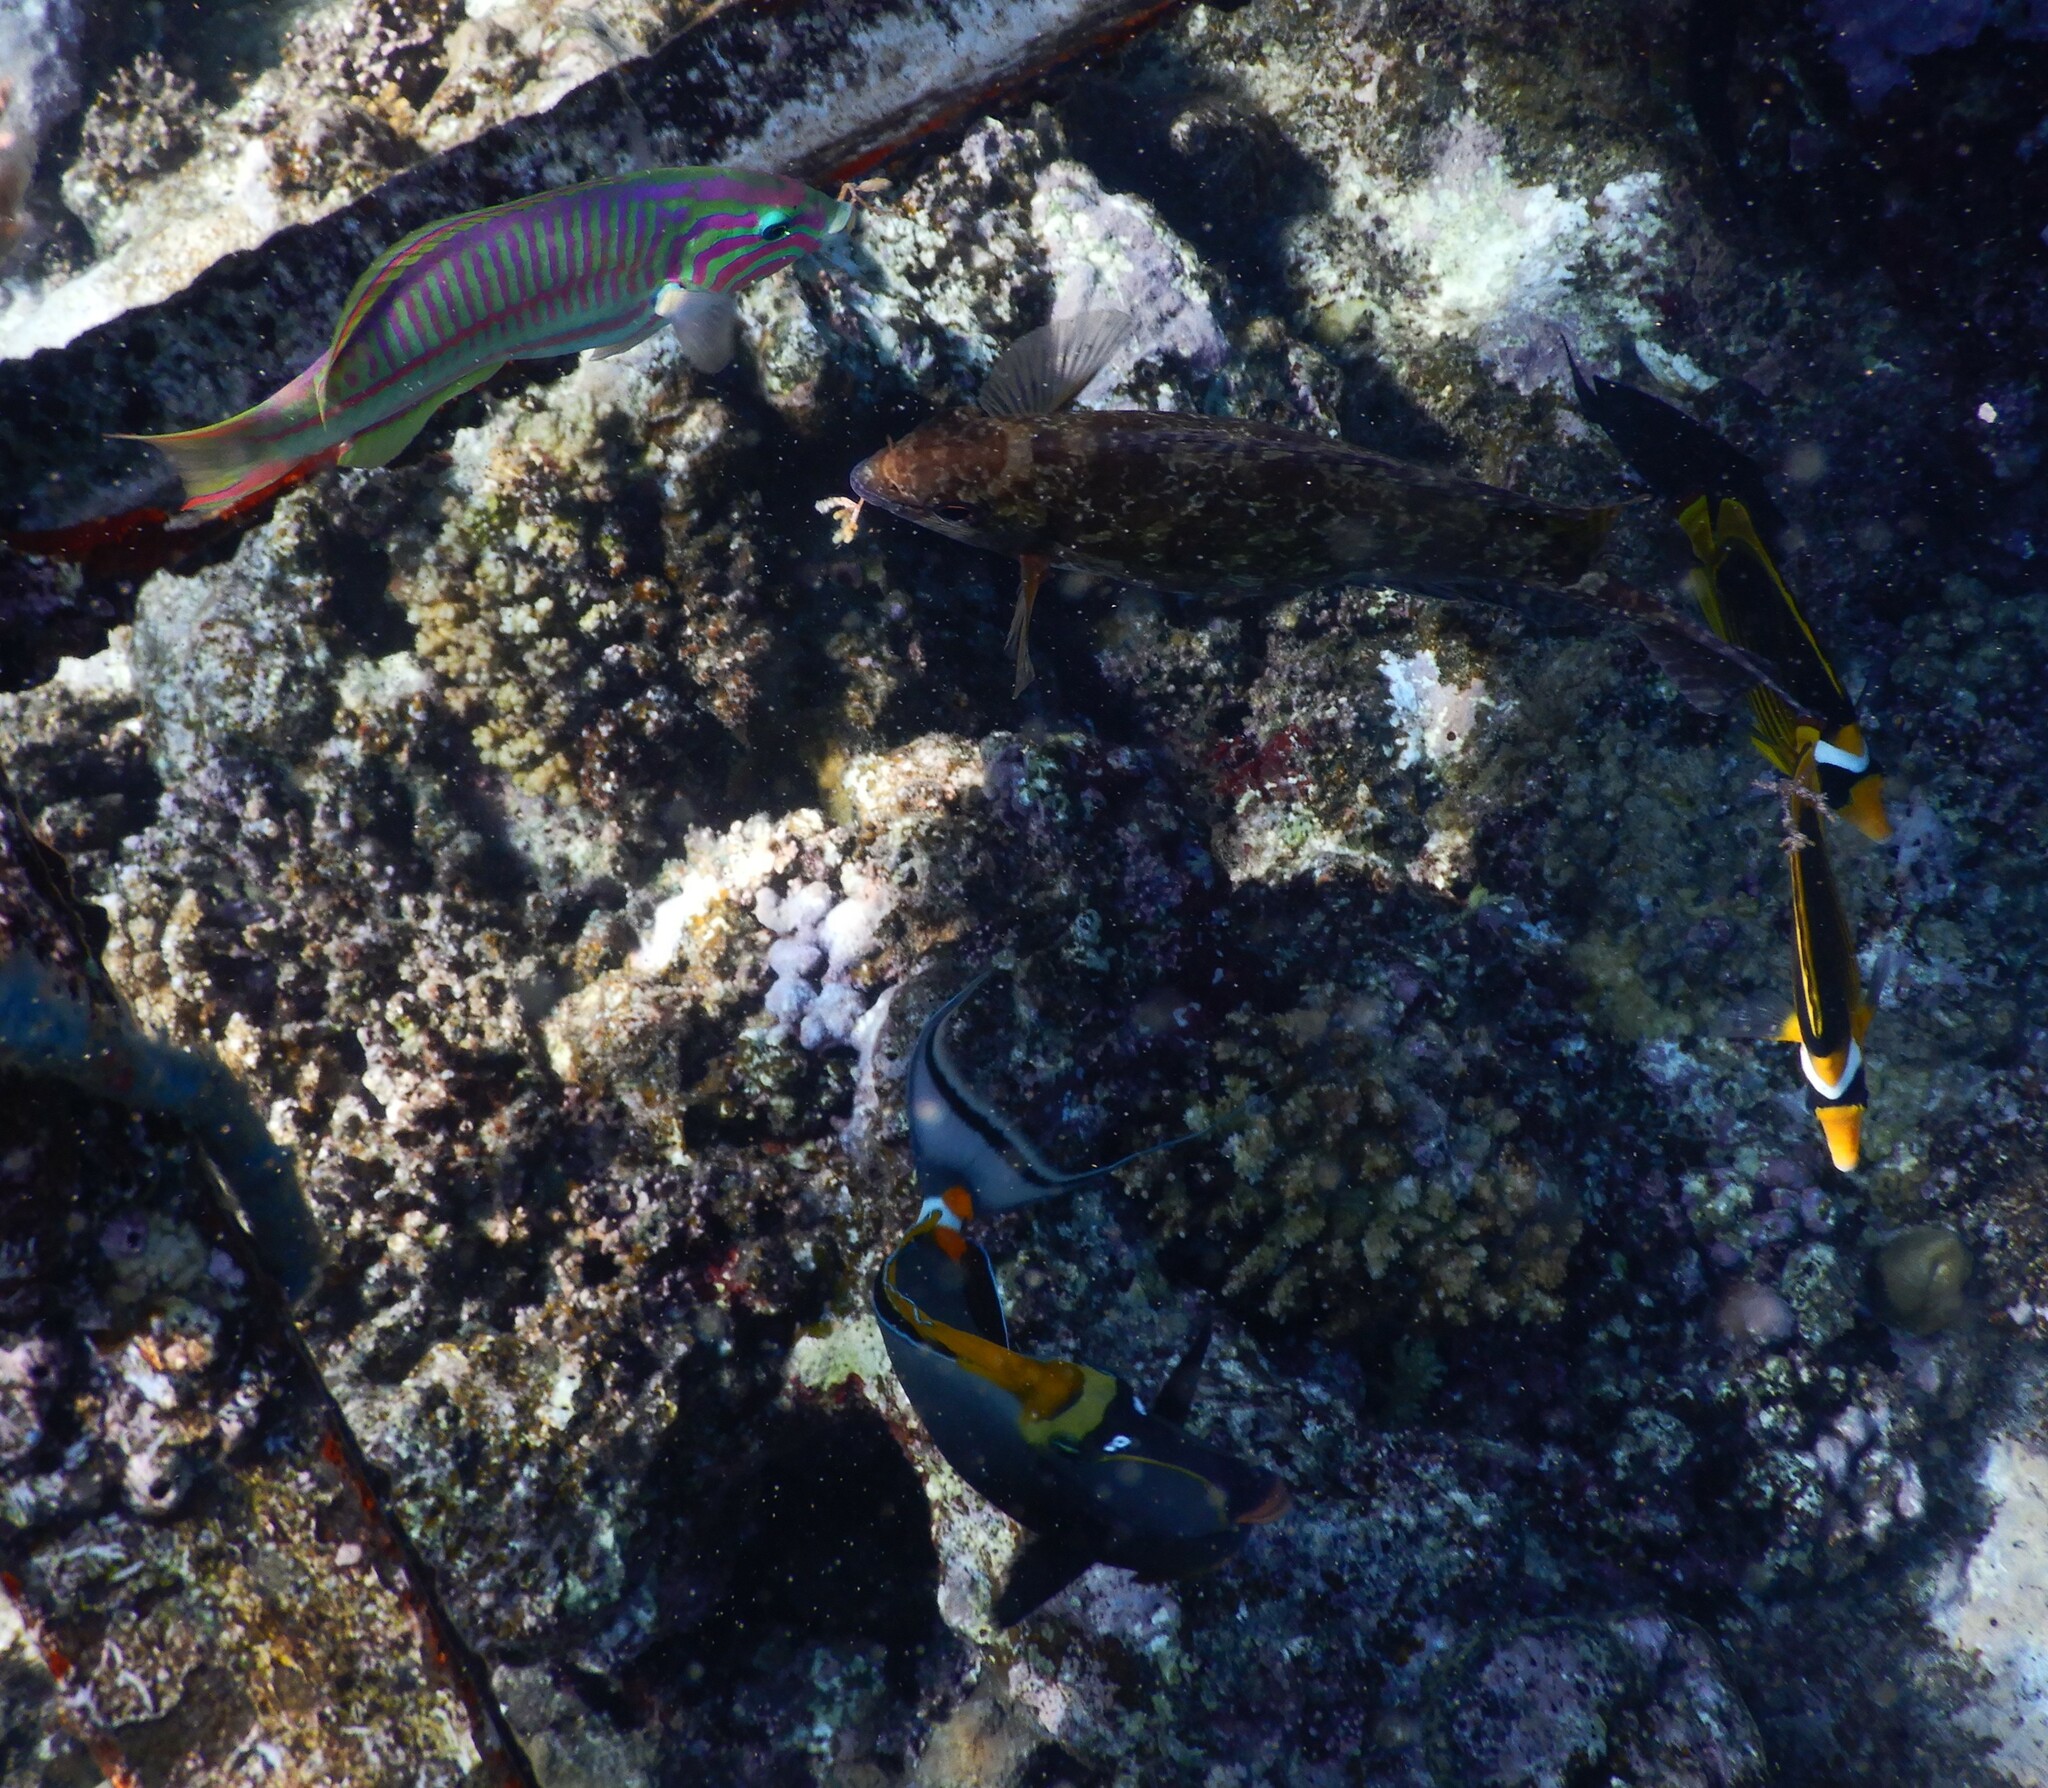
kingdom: Animalia
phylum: Chordata
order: Perciformes
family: Labridae
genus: Thalassoma
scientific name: Thalassoma rueppellii
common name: Klunzinger's wrasse
